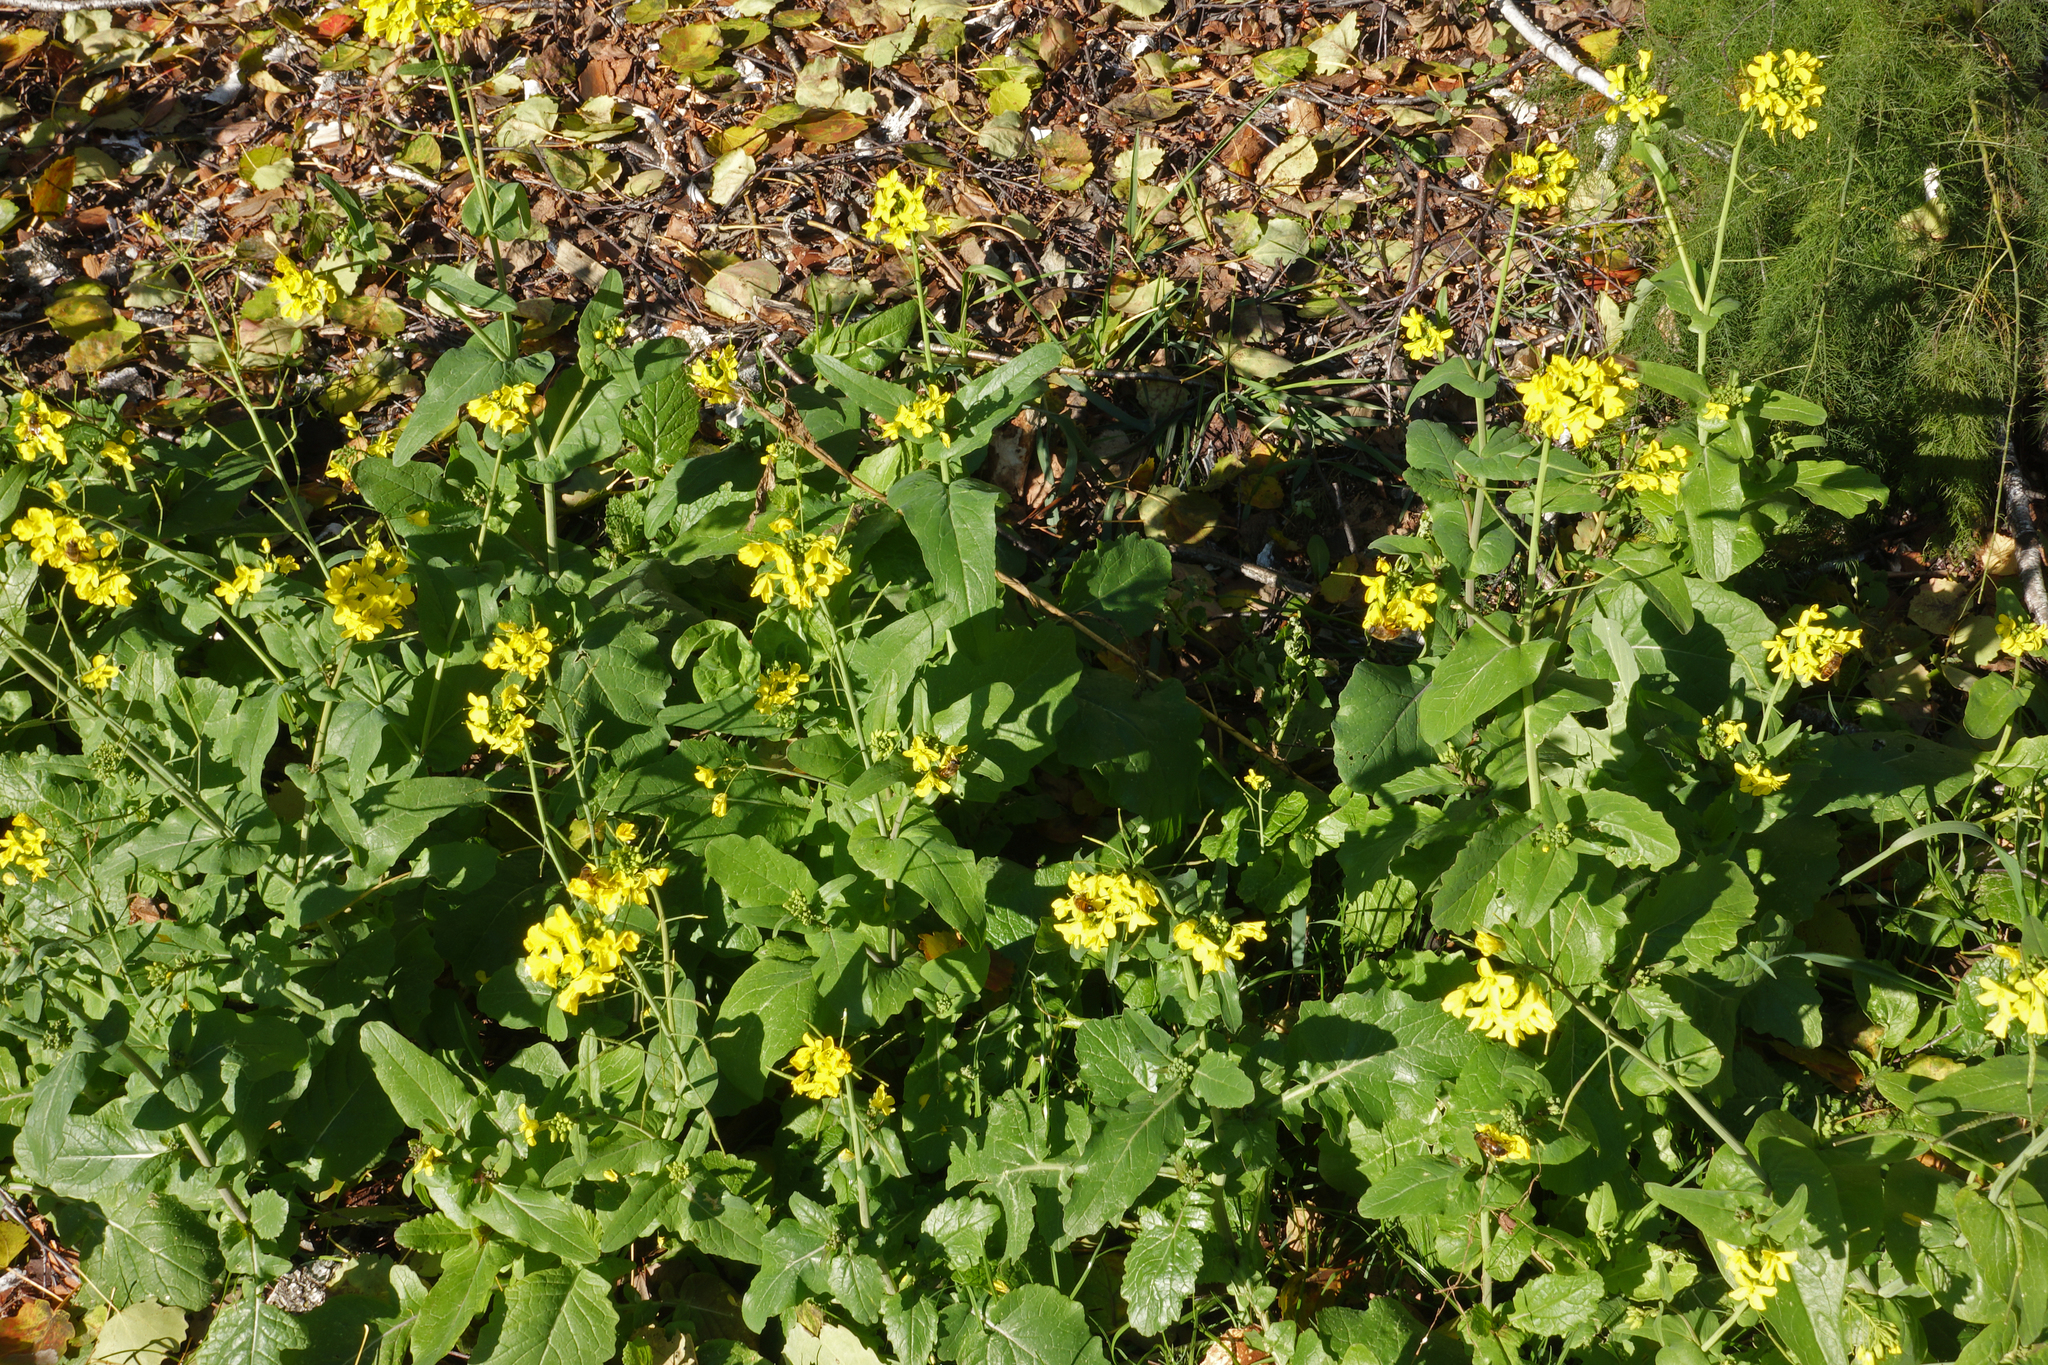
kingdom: Plantae
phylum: Tracheophyta
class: Magnoliopsida
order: Brassicales
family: Brassicaceae
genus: Brassica
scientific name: Brassica rapa
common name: Field mustard
